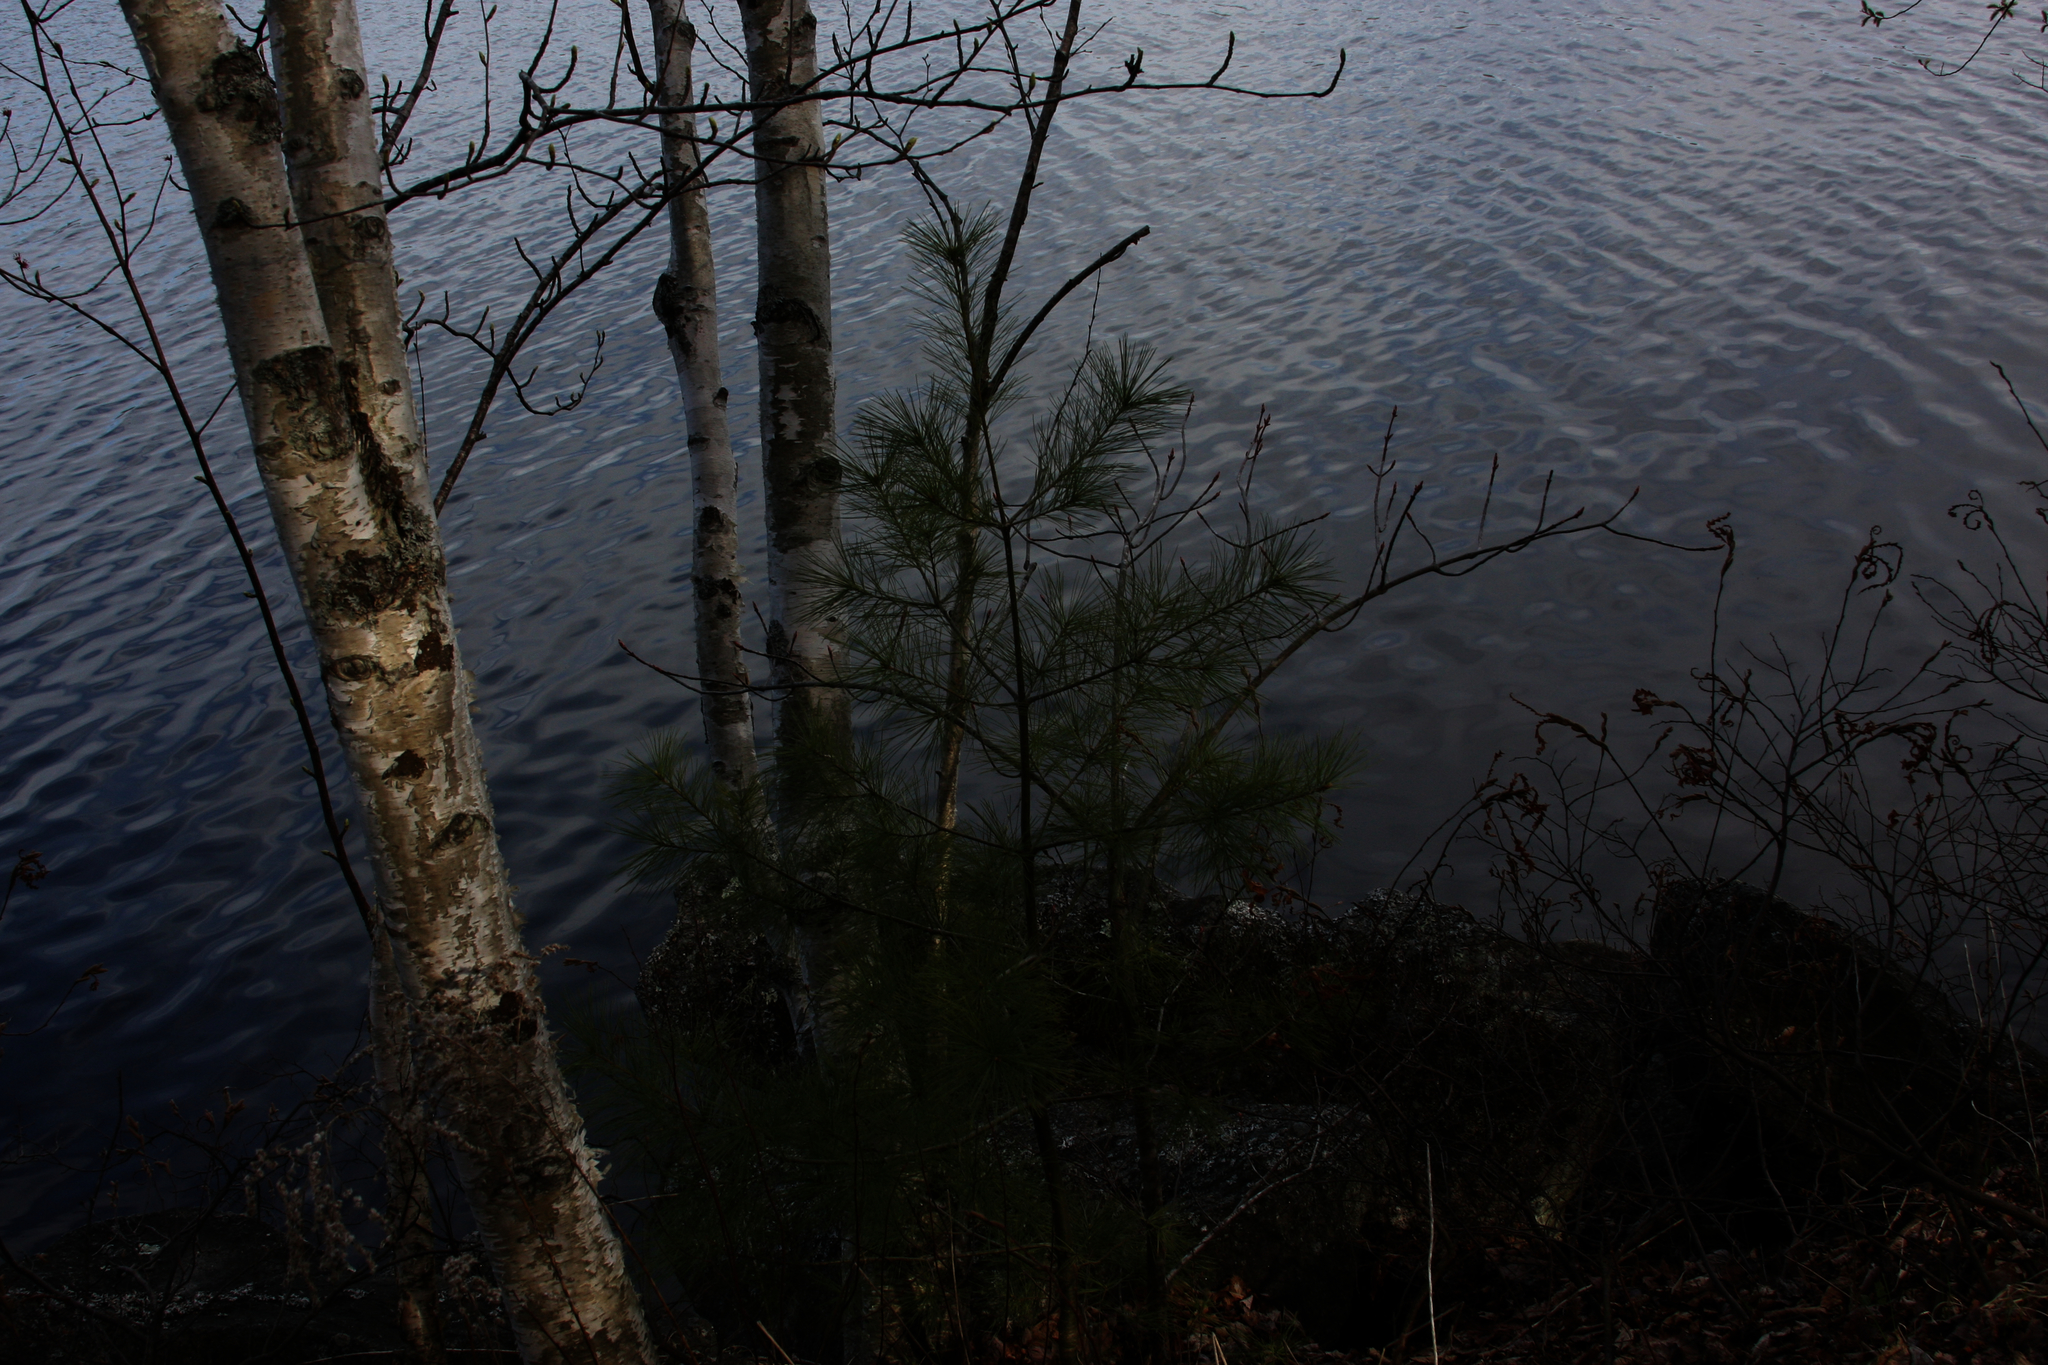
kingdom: Plantae
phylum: Tracheophyta
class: Pinopsida
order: Pinales
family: Pinaceae
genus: Pinus
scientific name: Pinus strobus
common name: Weymouth pine
